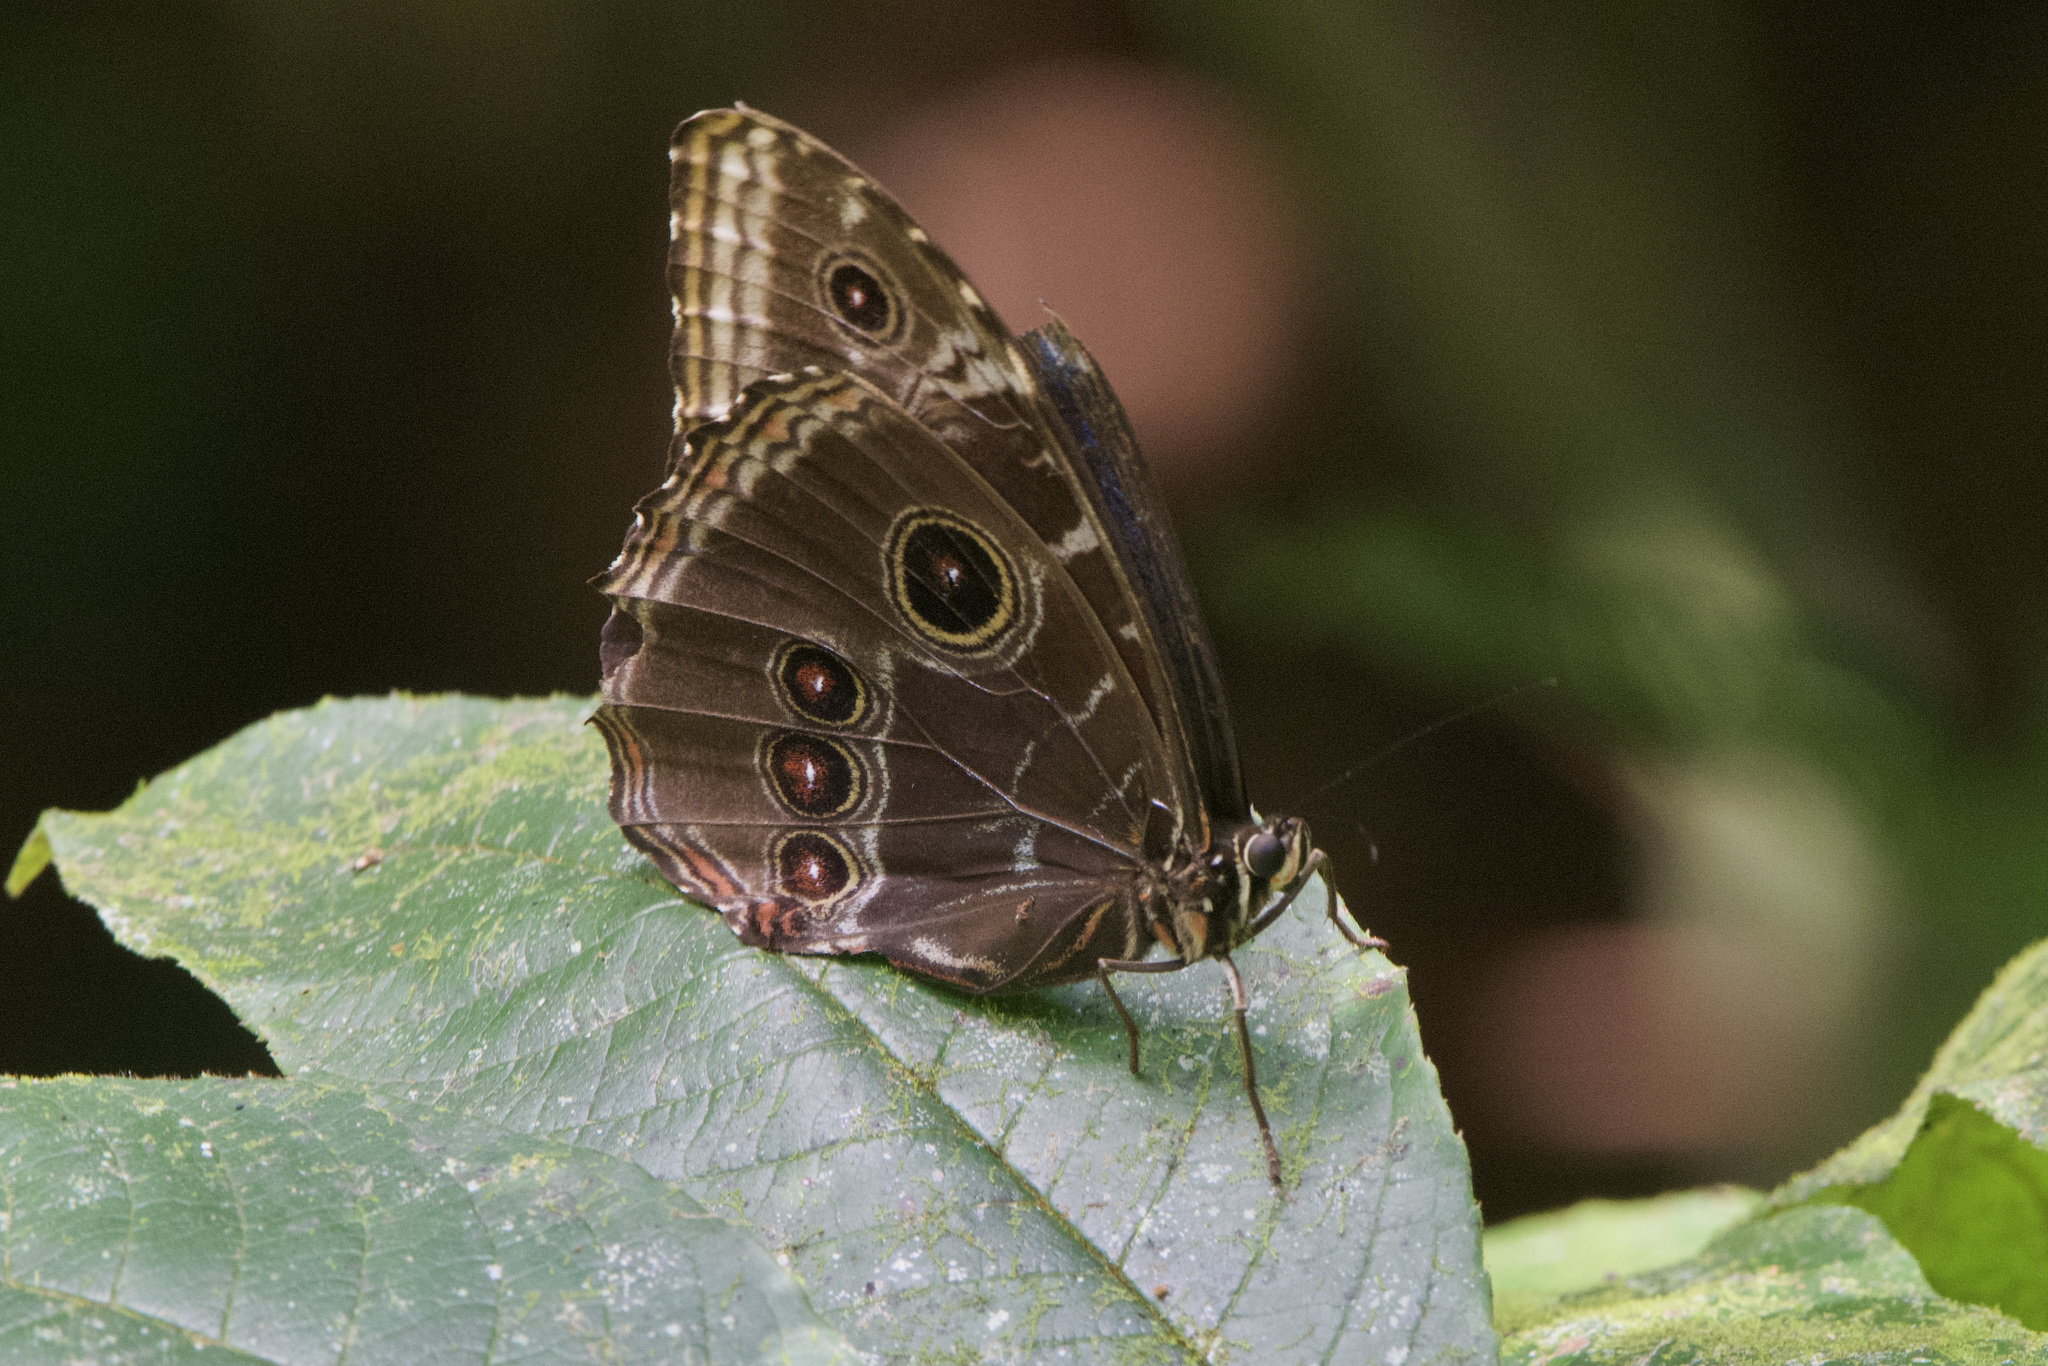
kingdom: Animalia
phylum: Arthropoda
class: Insecta
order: Lepidoptera
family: Nymphalidae
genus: Morpho
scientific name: Morpho helenor
